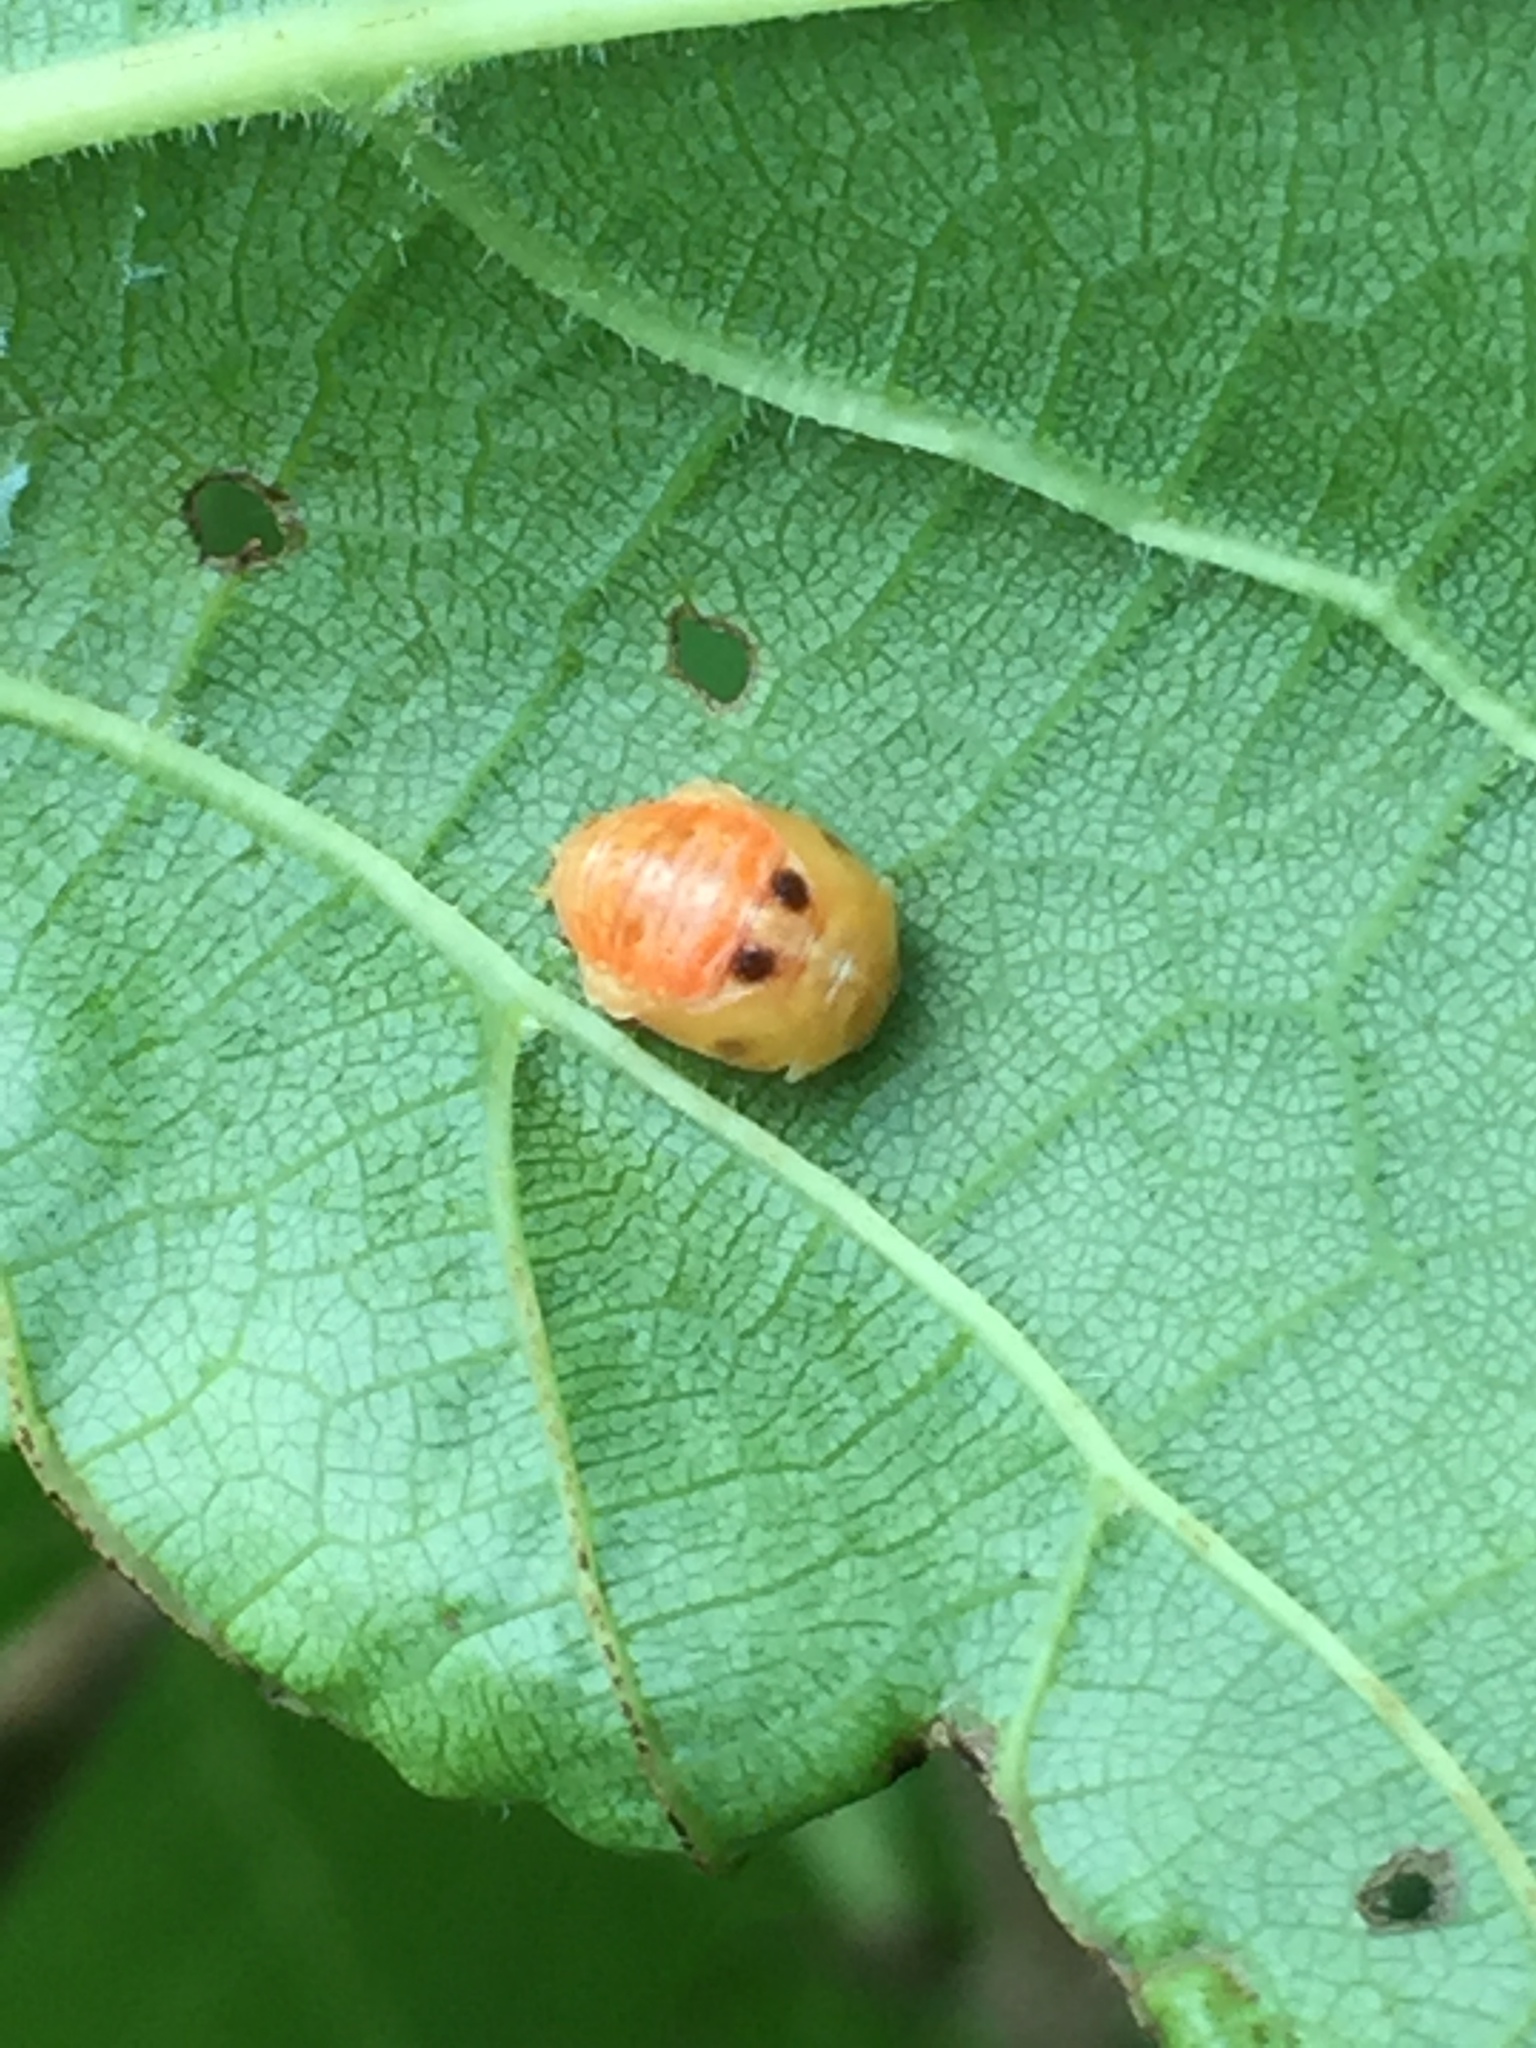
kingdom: Animalia
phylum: Arthropoda
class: Insecta
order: Coleoptera
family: Coccinellidae
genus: Harmonia
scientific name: Harmonia axyridis
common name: Harlequin ladybird
